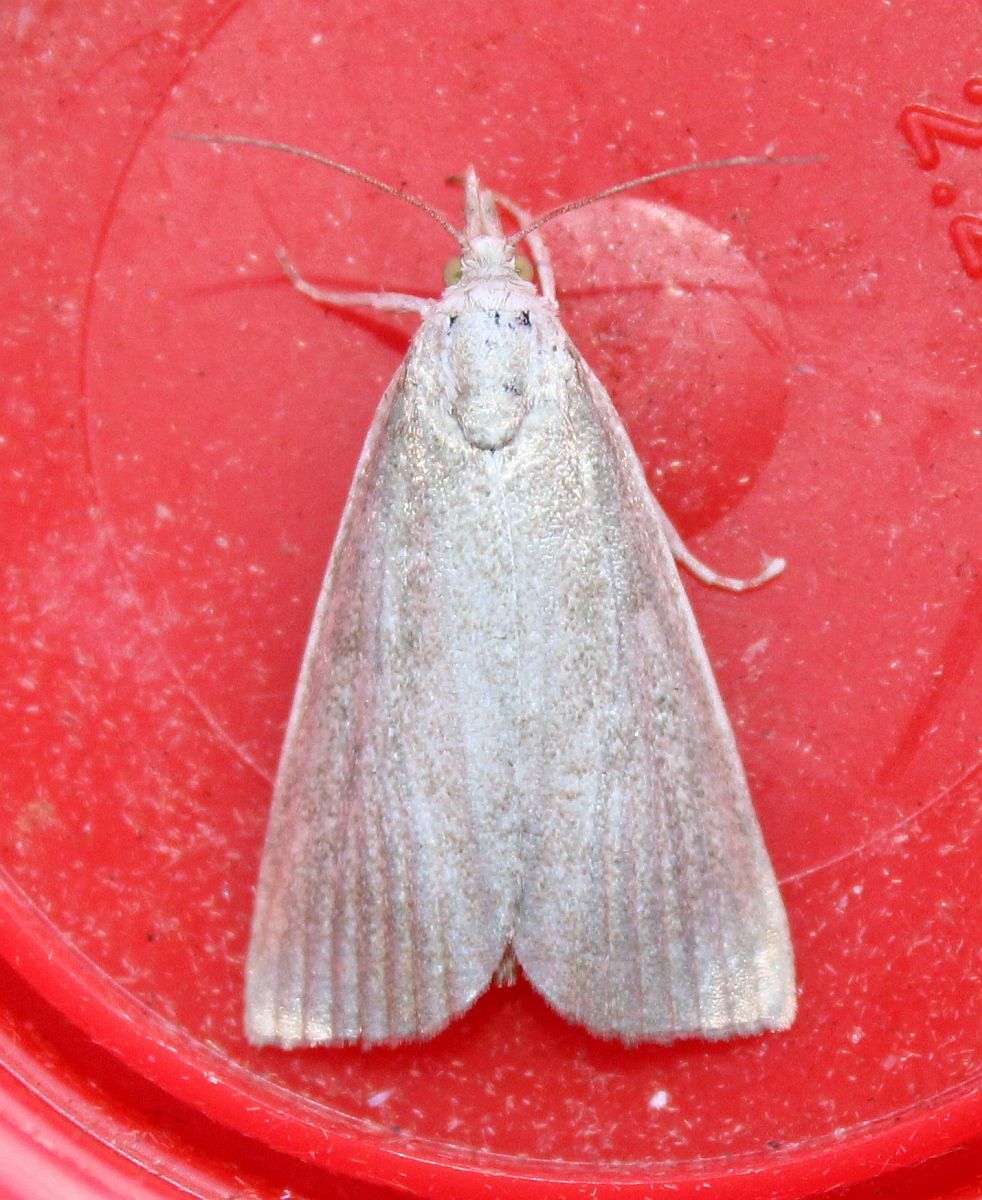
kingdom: Animalia
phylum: Arthropoda
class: Insecta
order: Lepidoptera
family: Crambidae
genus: Calamotropha
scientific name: Calamotropha paludella
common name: Bulrush veneer
